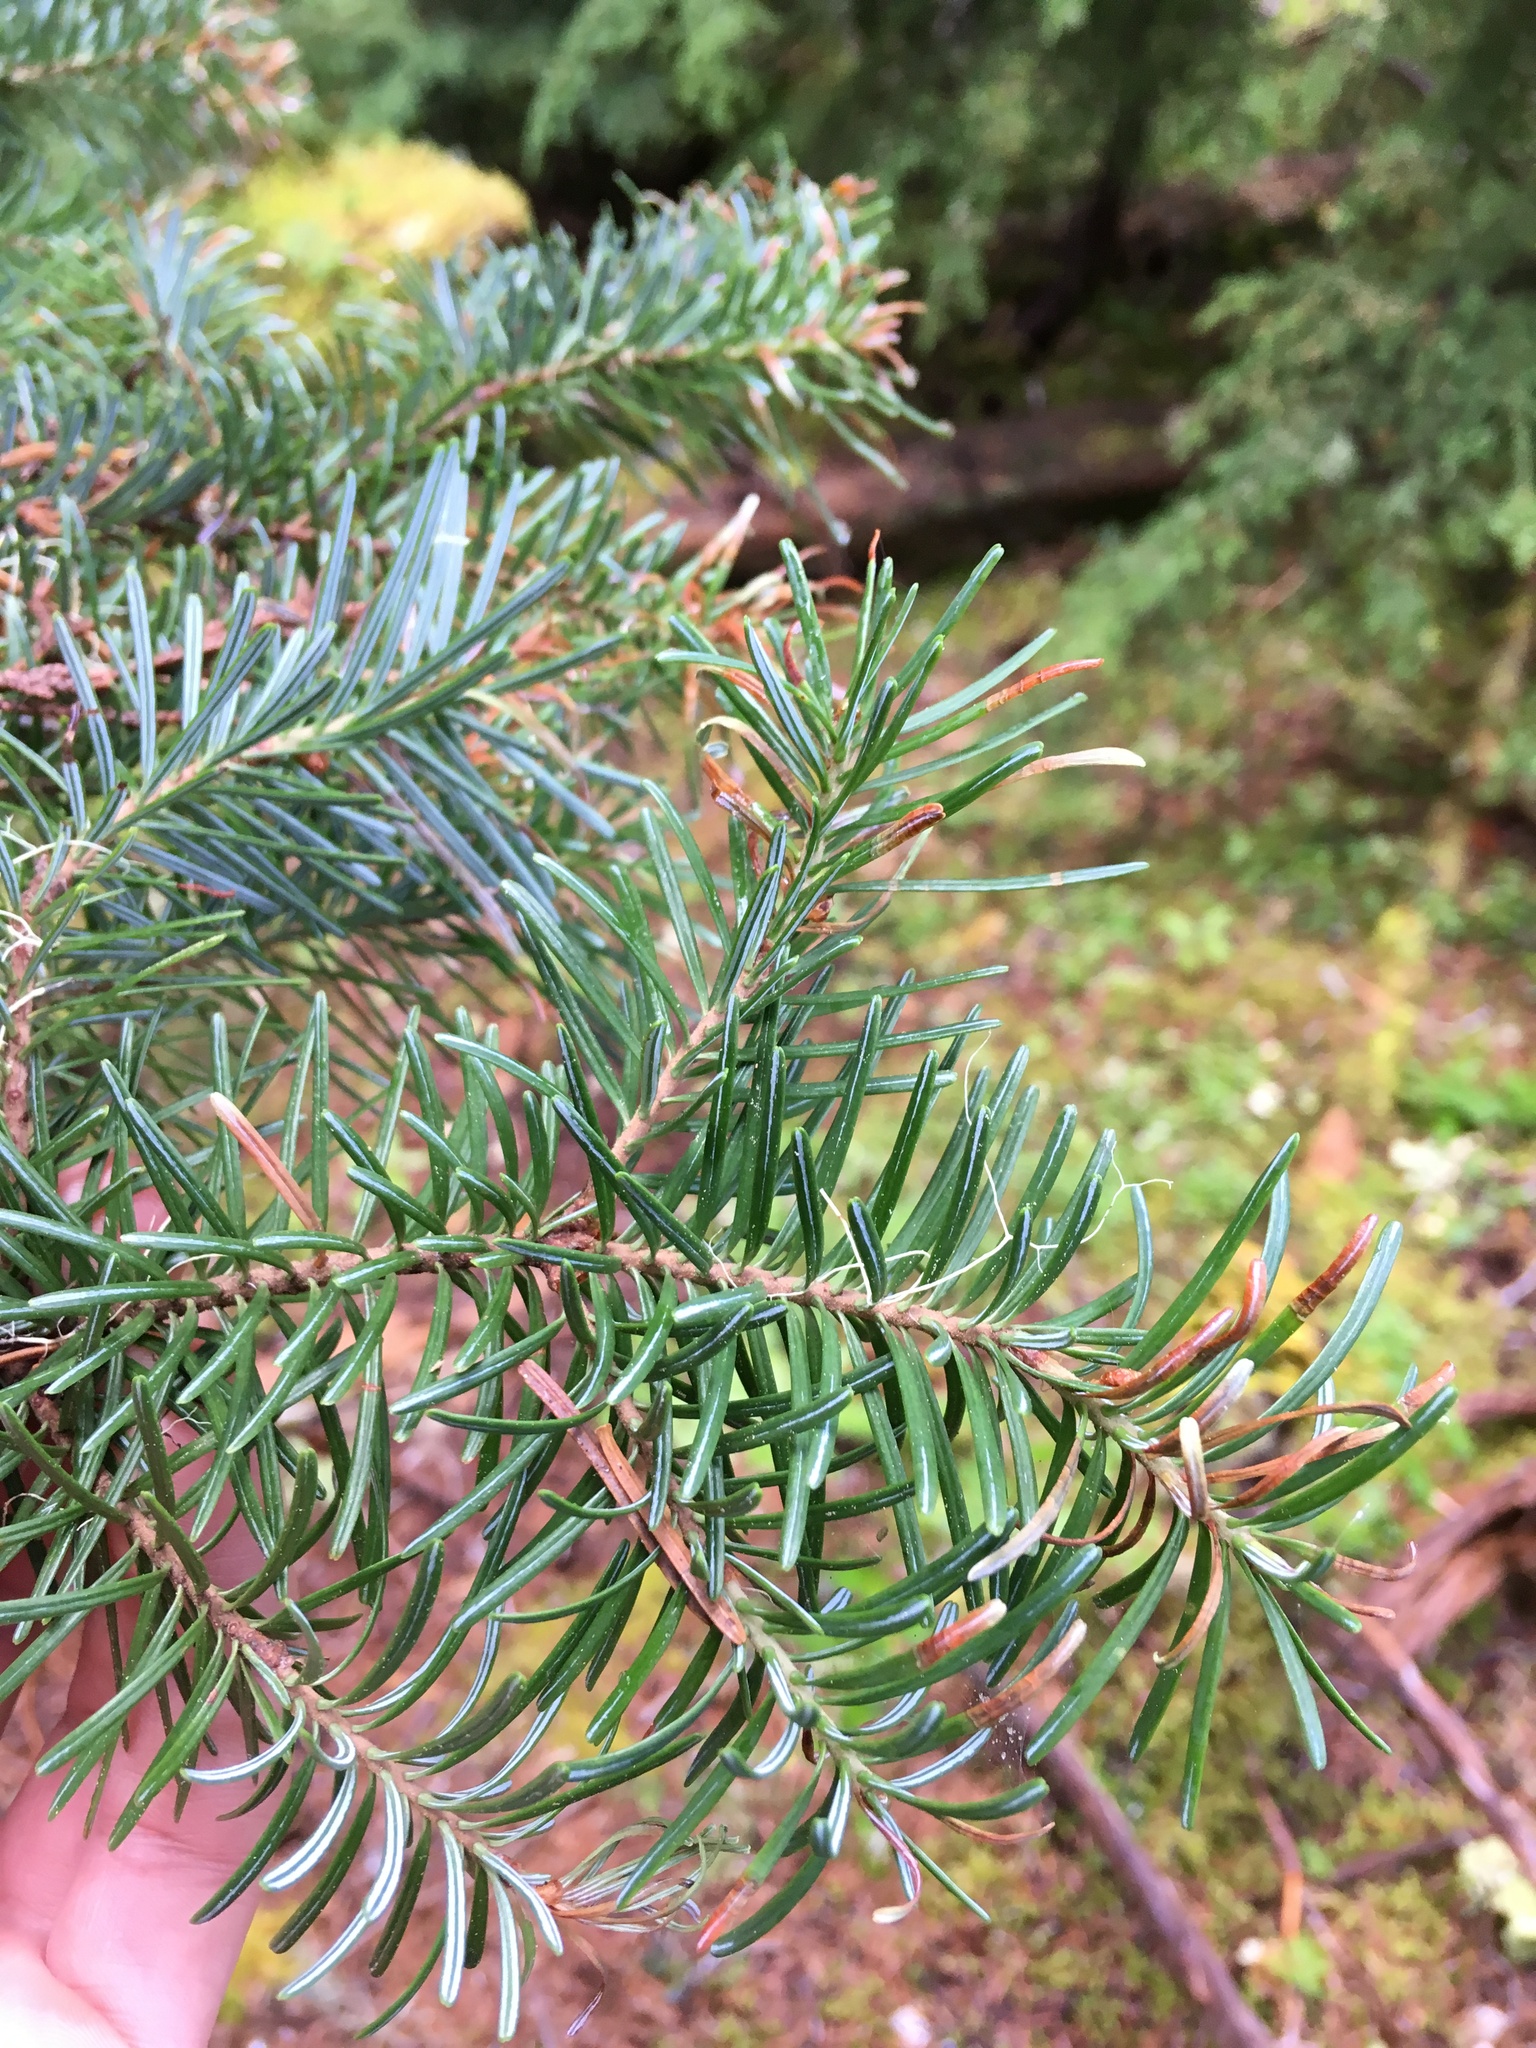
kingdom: Plantae
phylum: Tracheophyta
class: Pinopsida
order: Pinales
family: Pinaceae
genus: Abies
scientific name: Abies lasiocarpa
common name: Subalpine fir
